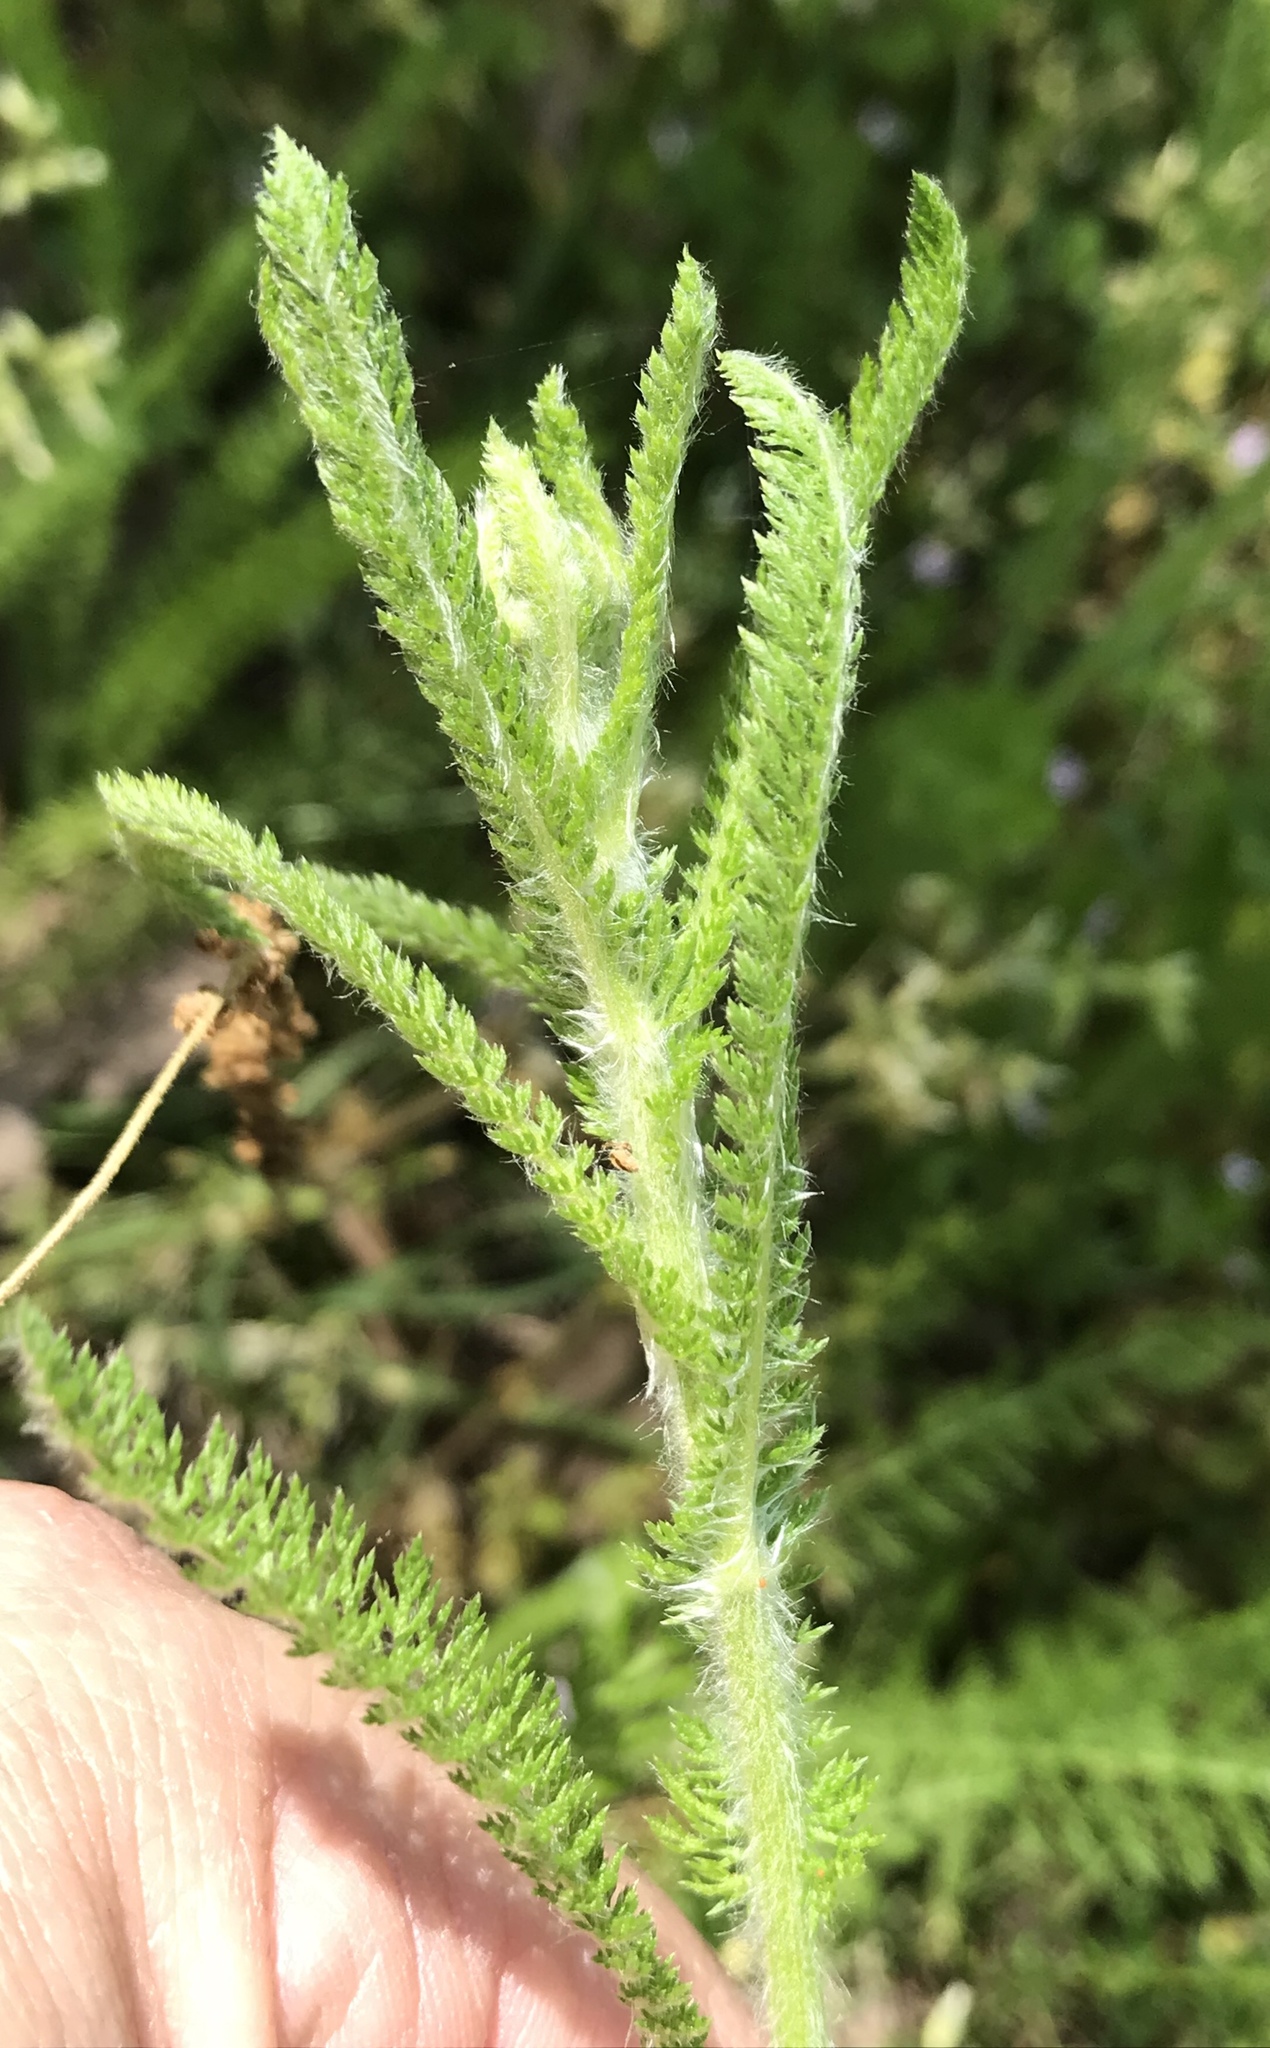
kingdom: Plantae
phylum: Tracheophyta
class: Magnoliopsida
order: Asterales
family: Asteraceae
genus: Achillea
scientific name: Achillea millefolium
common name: Yarrow
